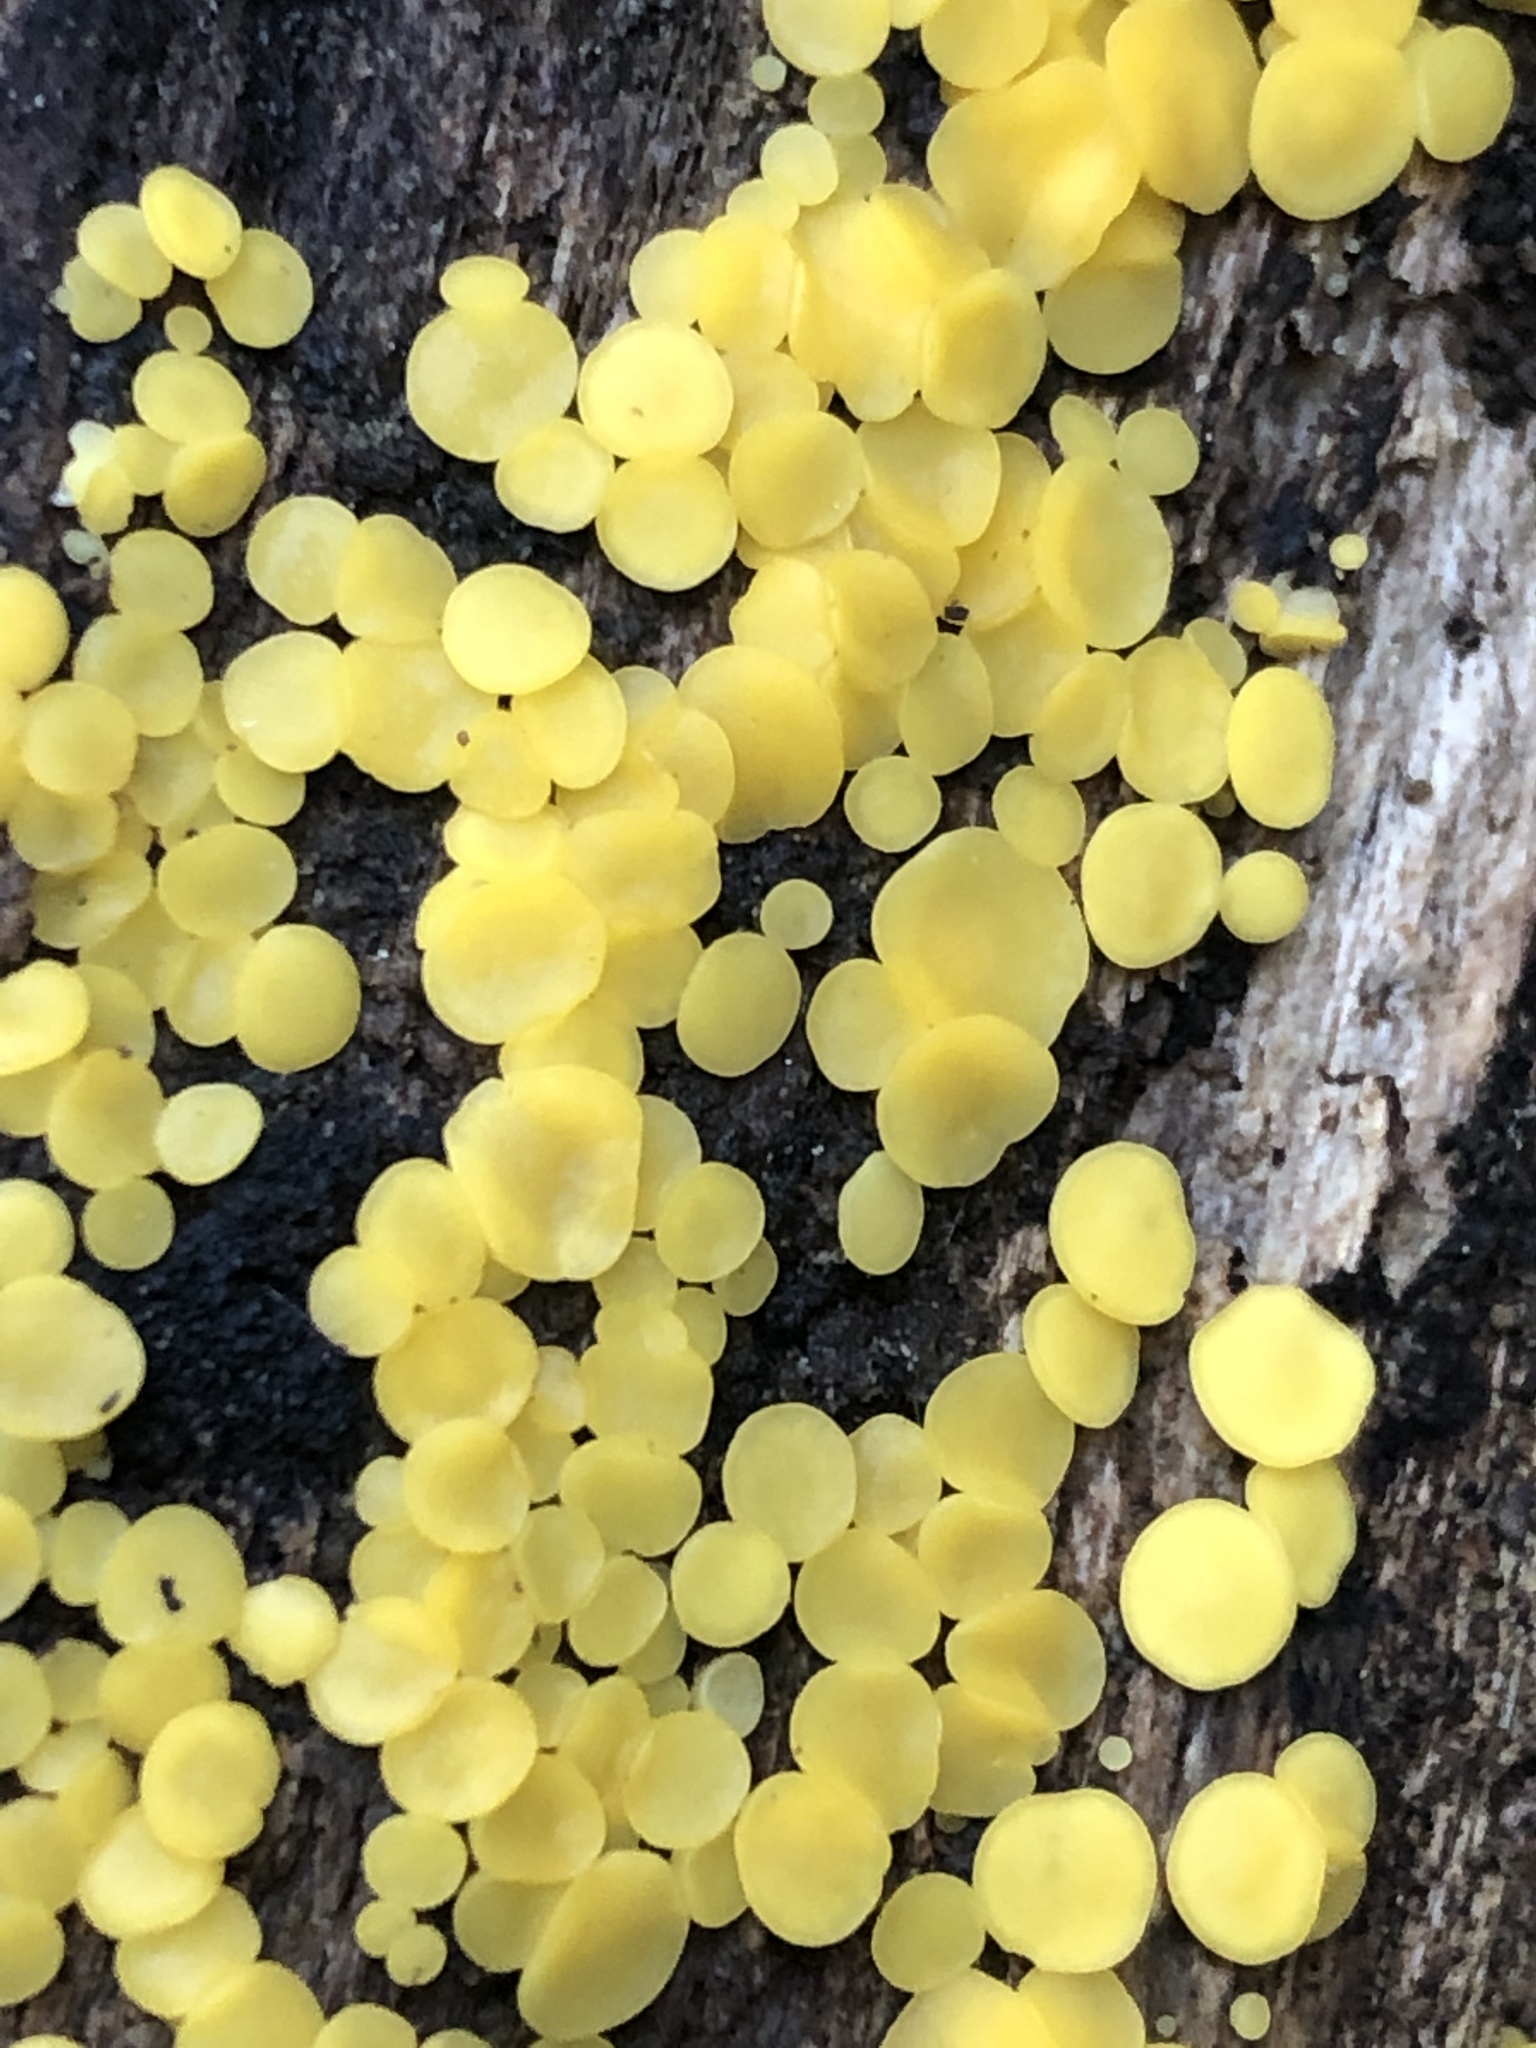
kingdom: Fungi
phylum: Ascomycota
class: Leotiomycetes
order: Helotiales
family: Pezizellaceae
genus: Calycina
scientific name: Calycina citrina
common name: Yellow fairy cups
